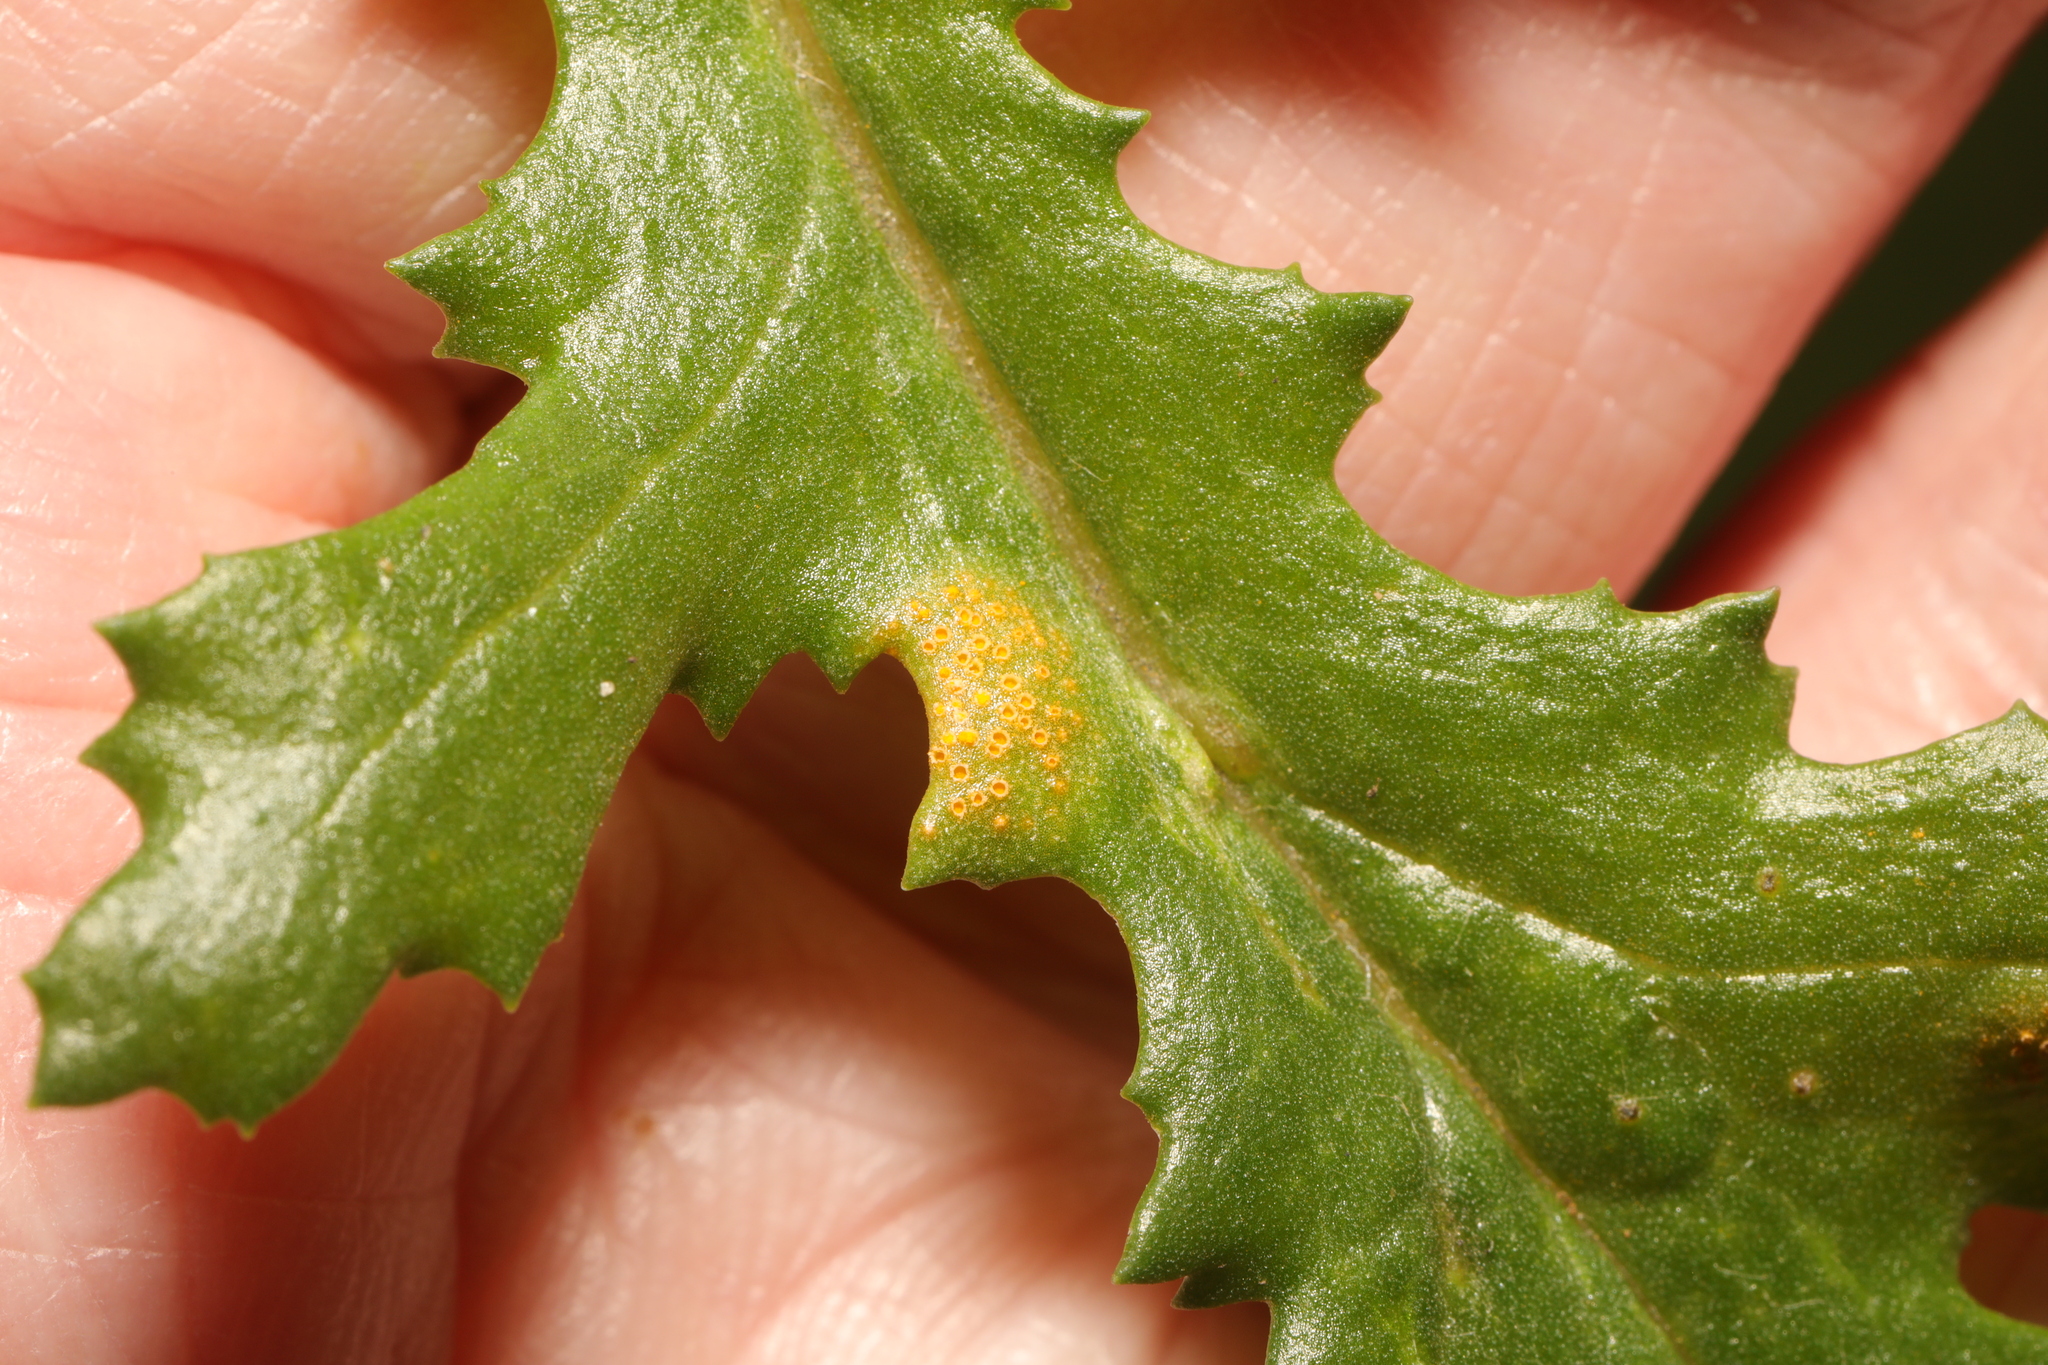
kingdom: Fungi
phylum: Basidiomycota
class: Pucciniomycetes
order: Pucciniales
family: Pucciniaceae
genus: Puccinia
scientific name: Puccinia lagenophorae
